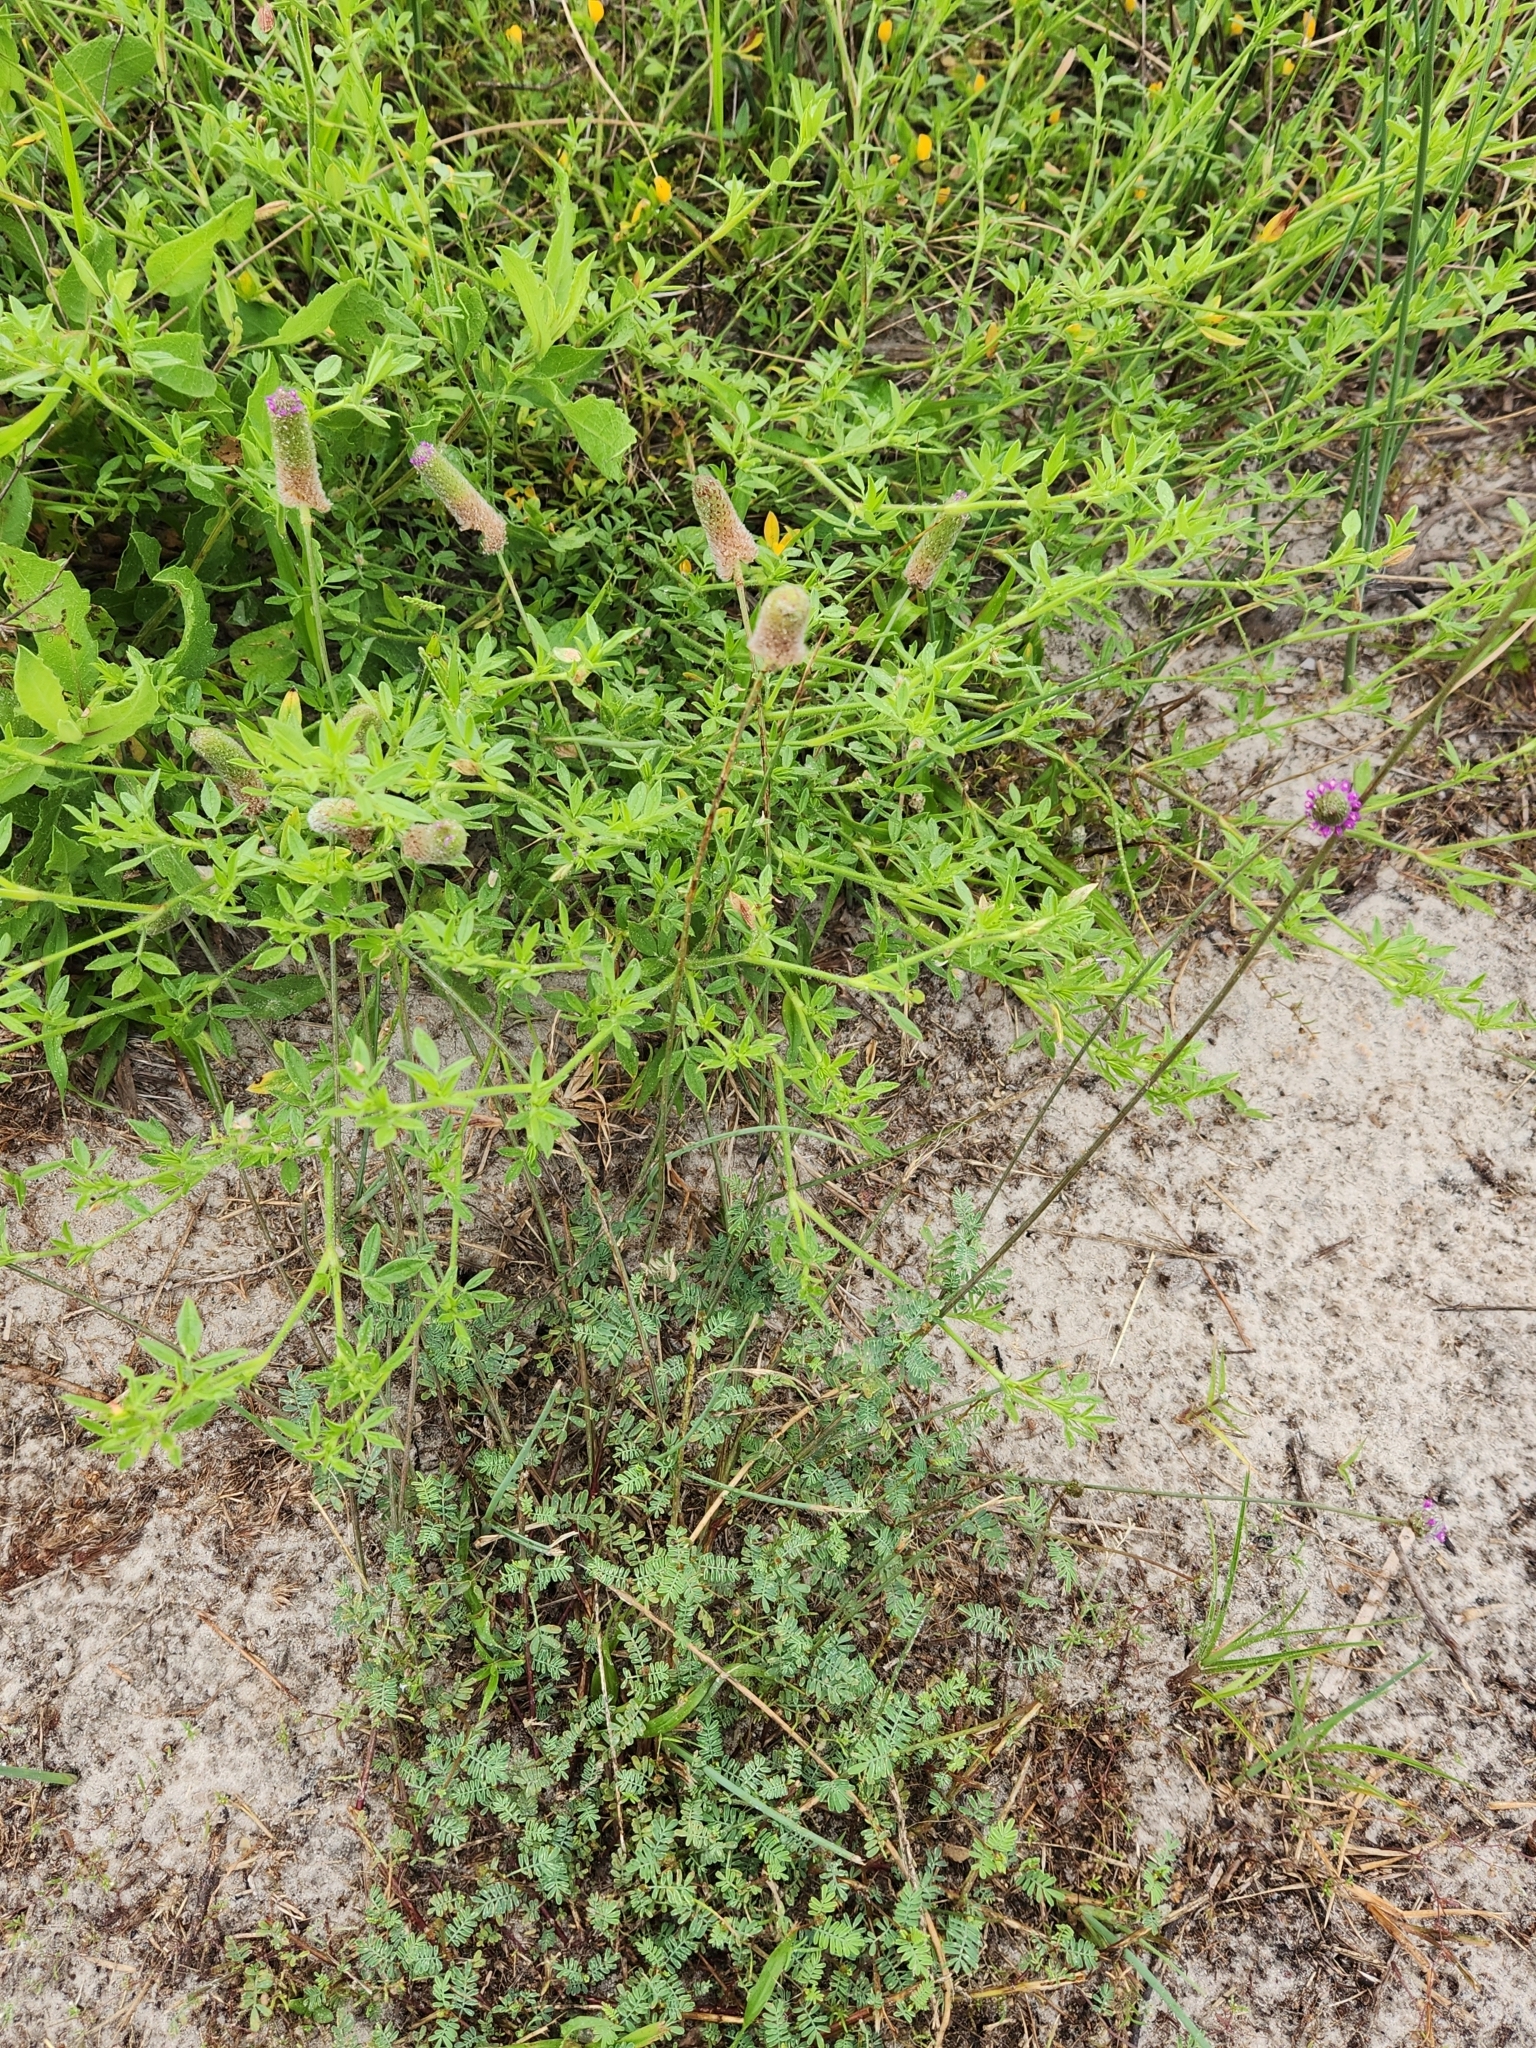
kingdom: Plantae
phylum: Tracheophyta
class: Magnoliopsida
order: Fabales
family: Fabaceae
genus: Dalea
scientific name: Dalea emarginata
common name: Wedgeleaf prairie clover
